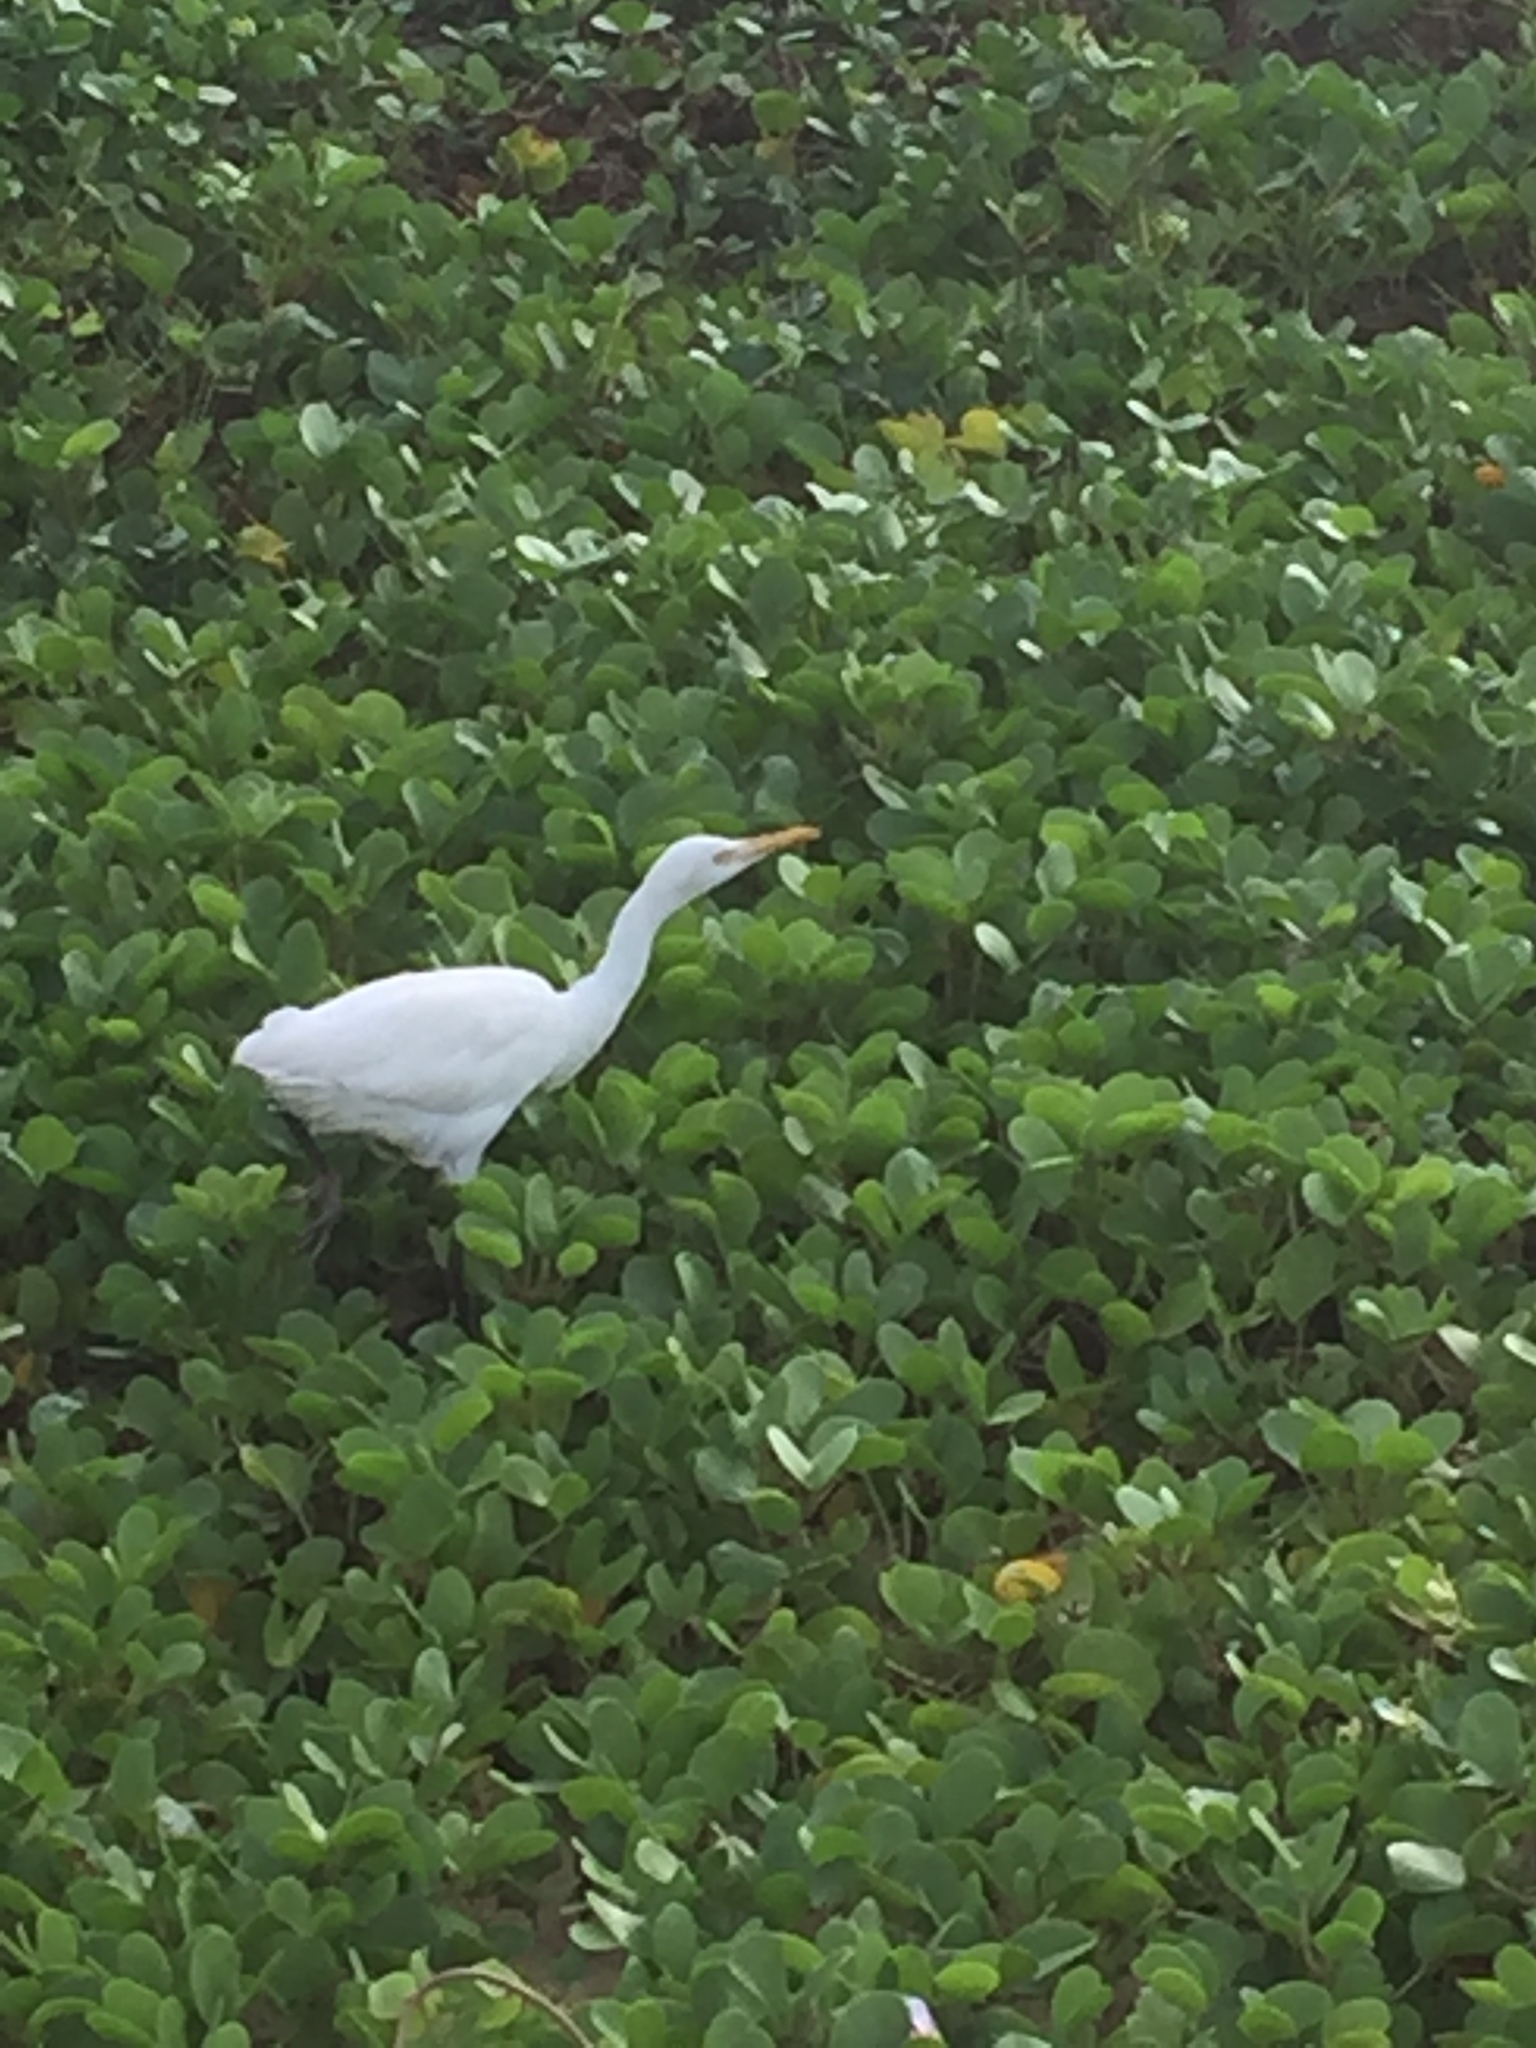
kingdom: Animalia
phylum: Chordata
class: Aves
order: Pelecaniformes
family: Ardeidae
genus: Bubulcus
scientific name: Bubulcus coromandus
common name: Eastern cattle egret
